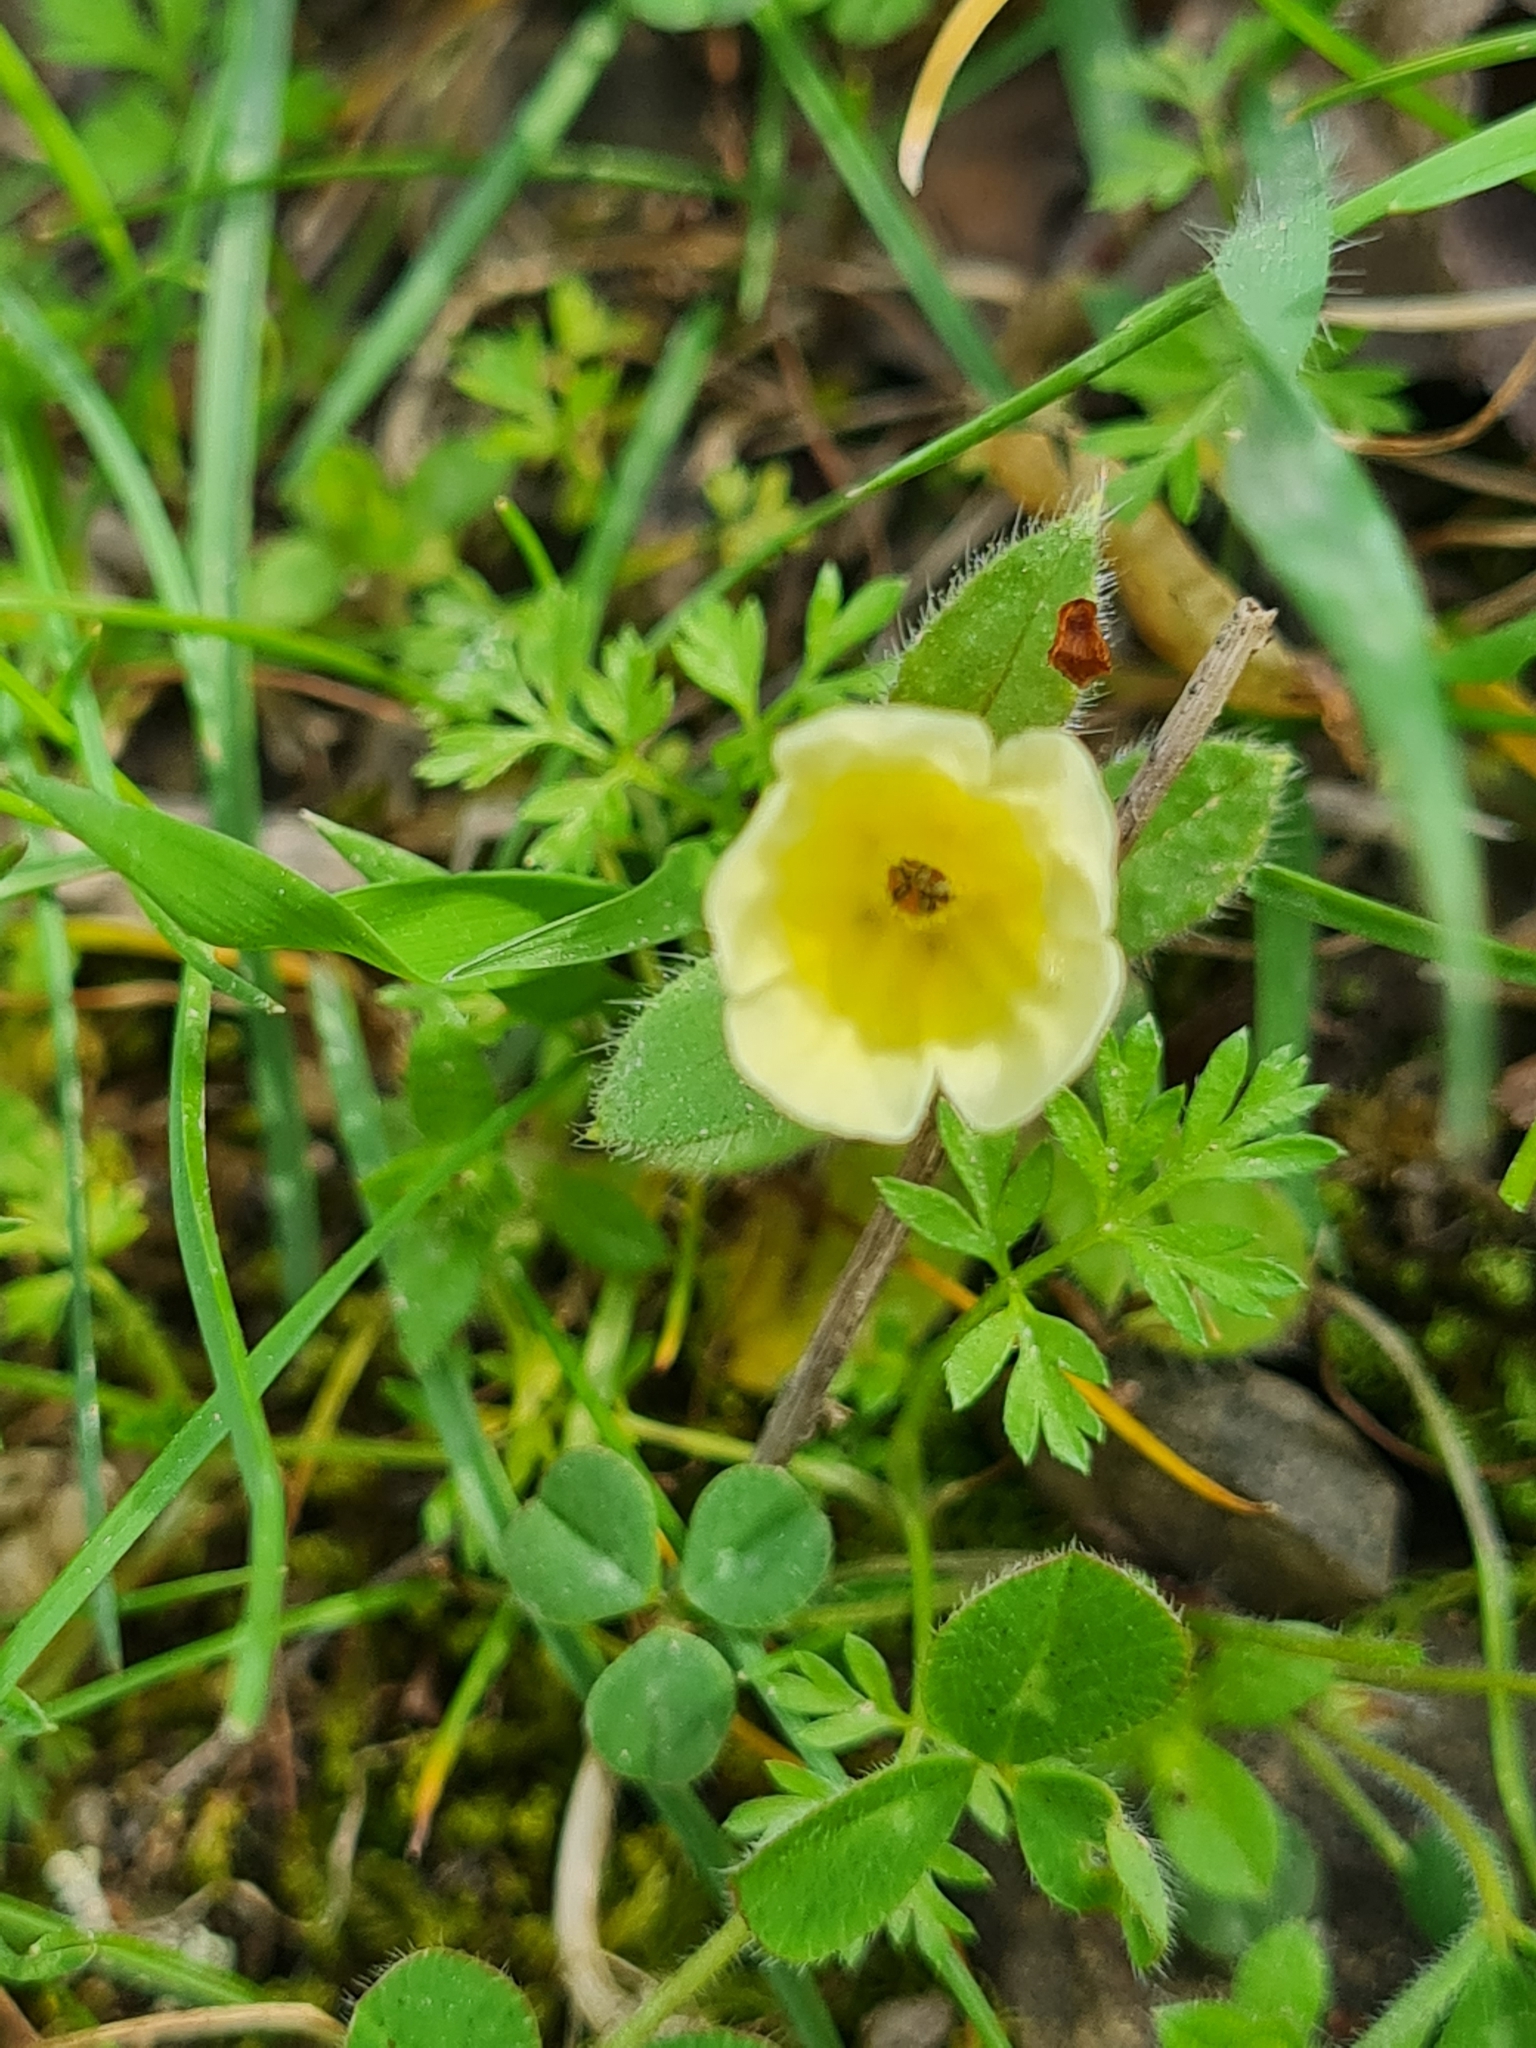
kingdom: Plantae
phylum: Tracheophyta
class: Magnoliopsida
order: Boraginales
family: Boraginaceae
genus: Nonea
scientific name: Nonea alpestris
